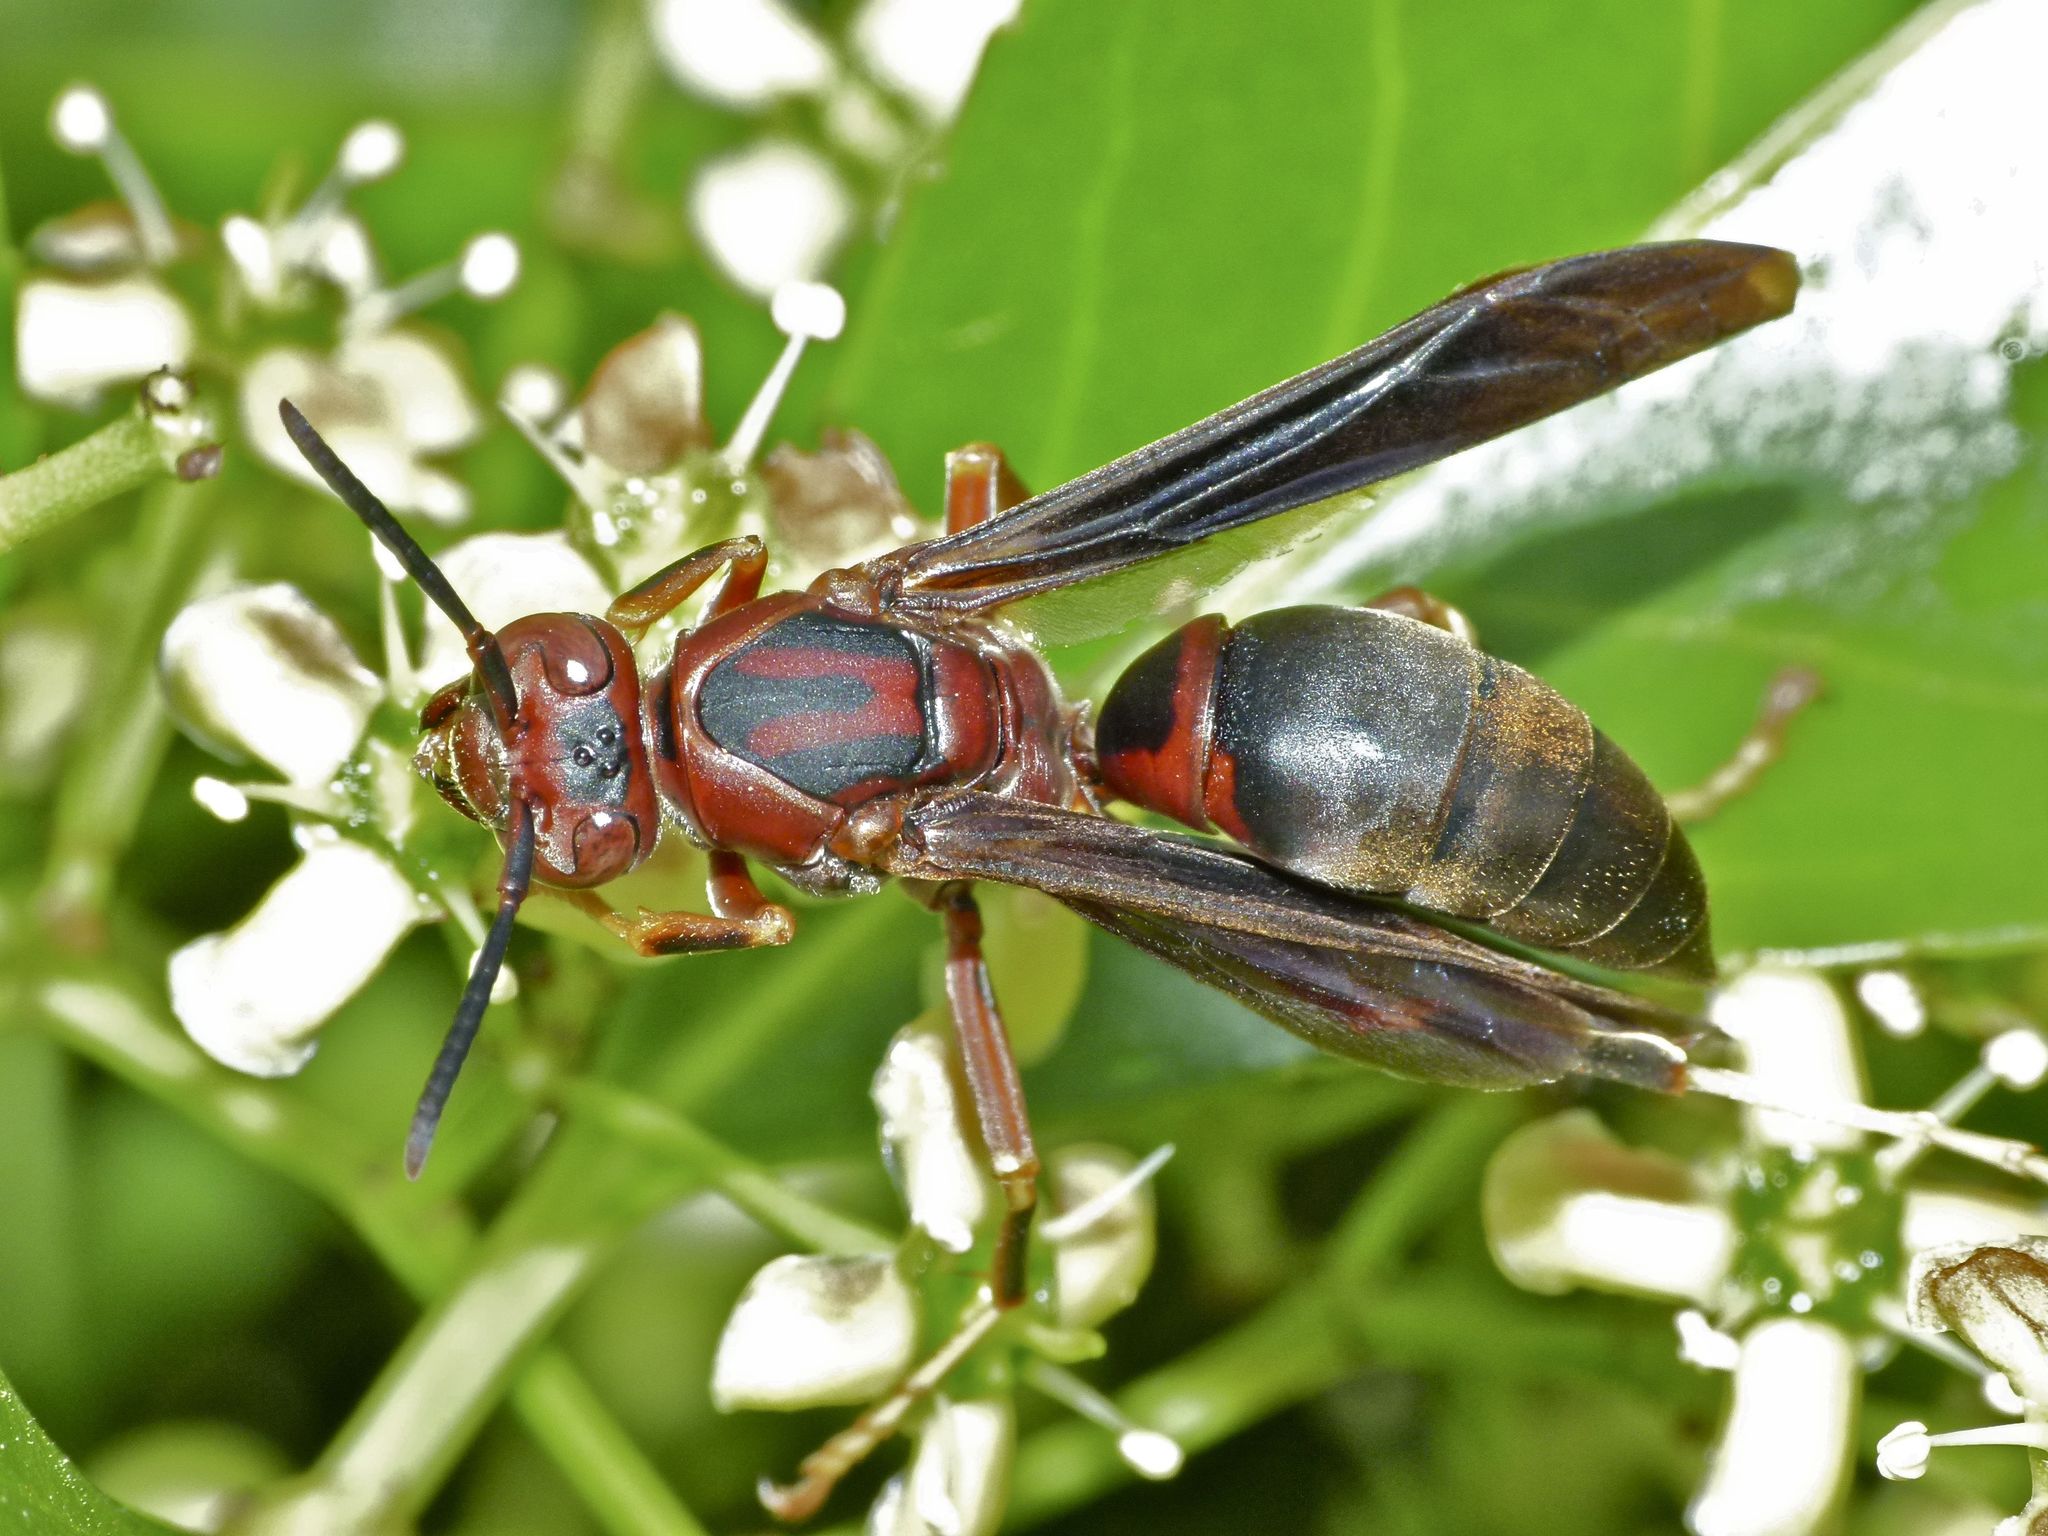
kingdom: Animalia
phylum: Arthropoda
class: Insecta
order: Hymenoptera
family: Eumenidae
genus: Polistes
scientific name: Polistes metricus
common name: Metric paper wasp
